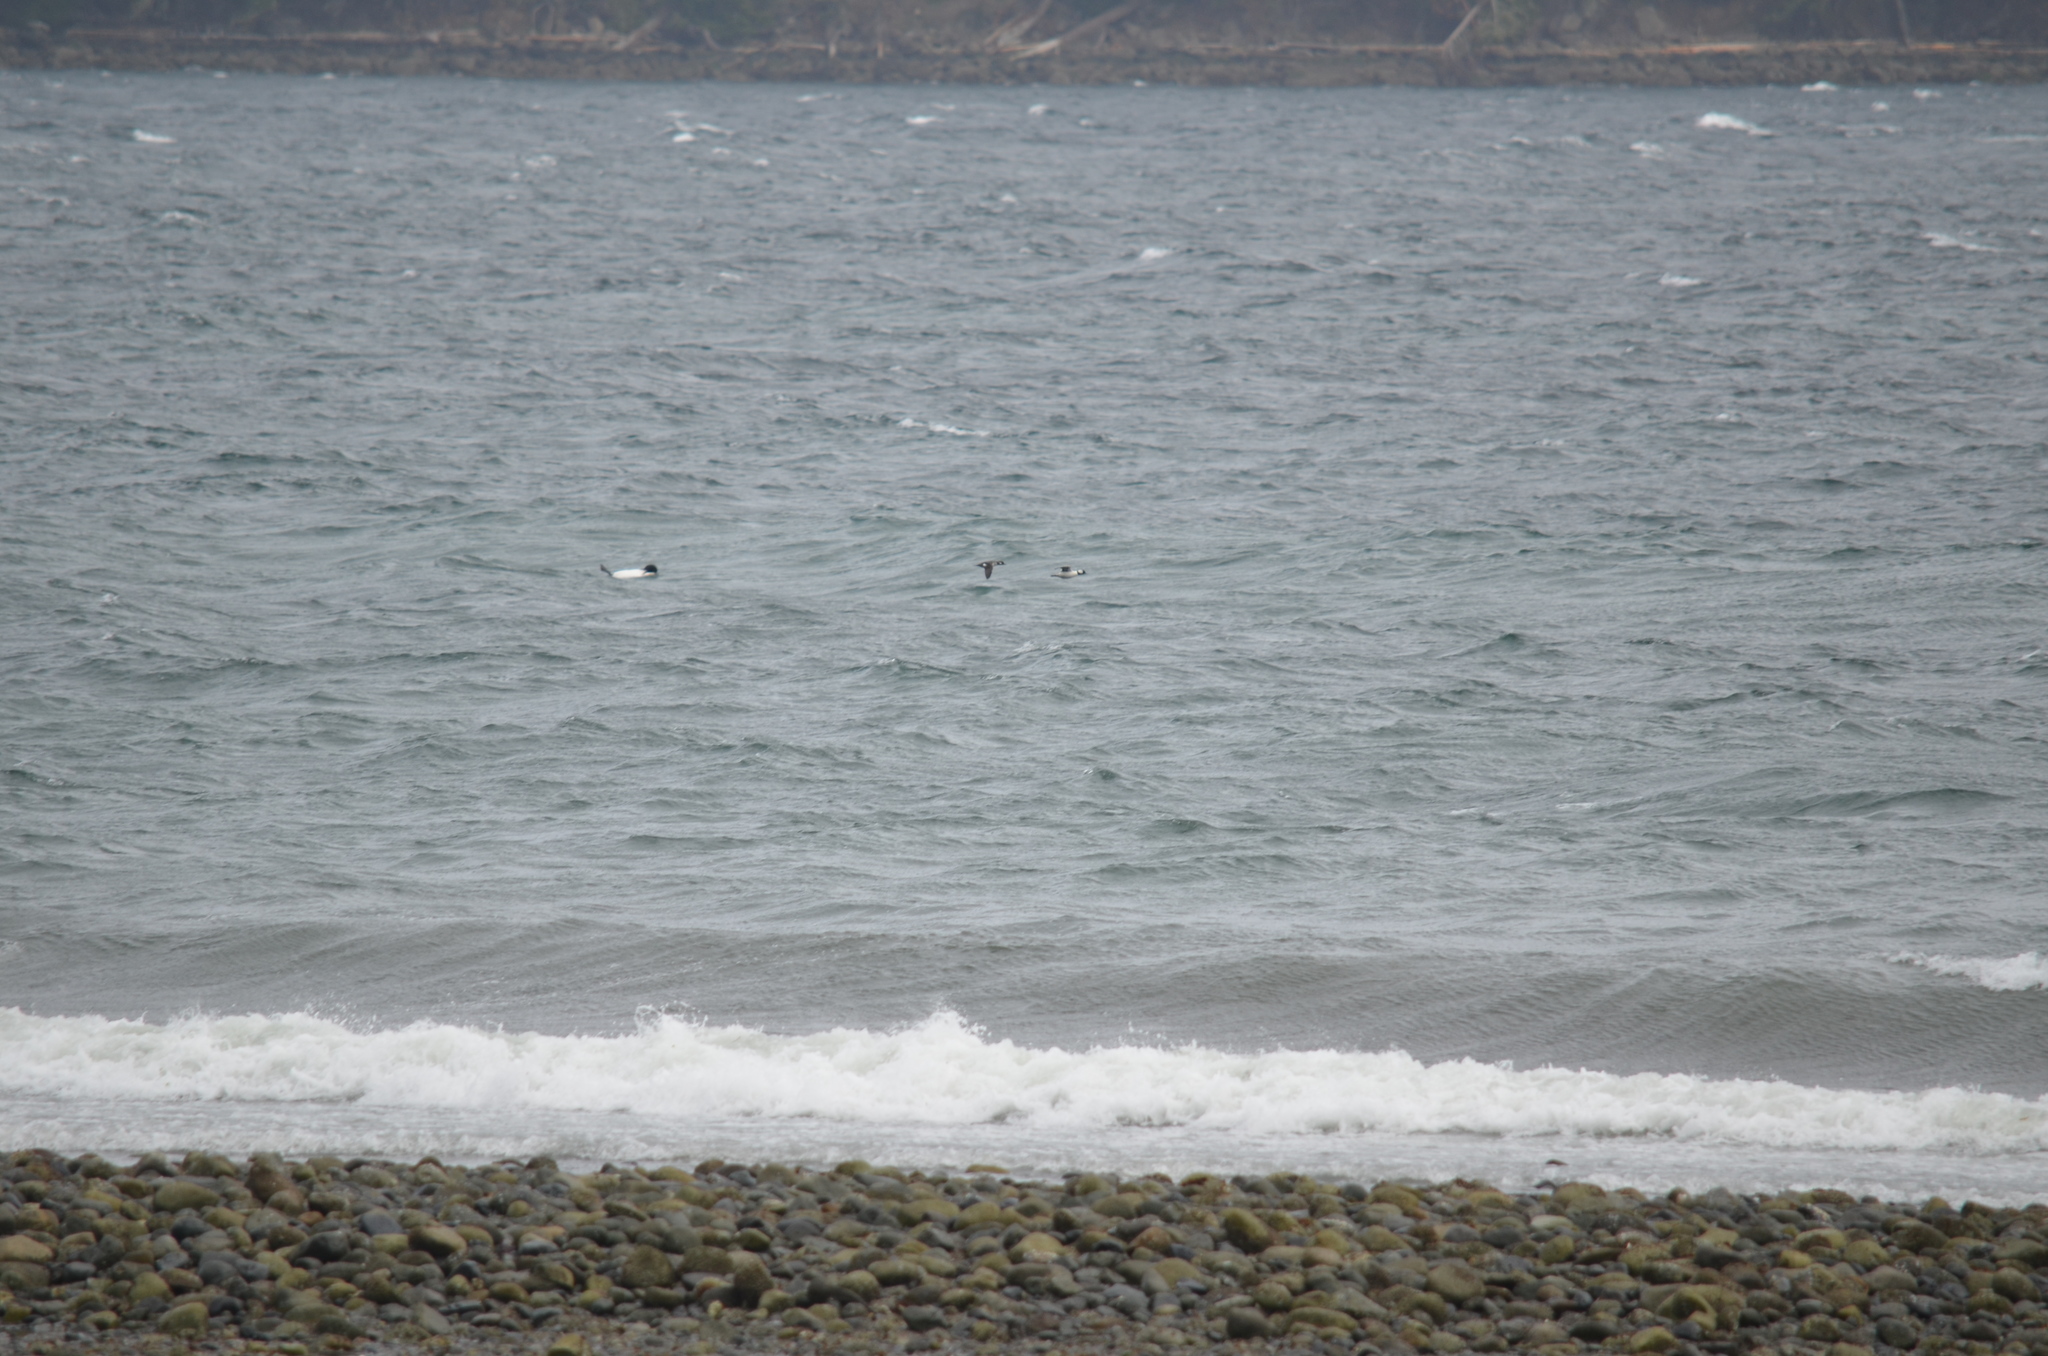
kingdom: Animalia
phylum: Chordata
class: Aves
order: Anseriformes
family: Anatidae
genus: Mergus
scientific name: Mergus merganser
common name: Common merganser
